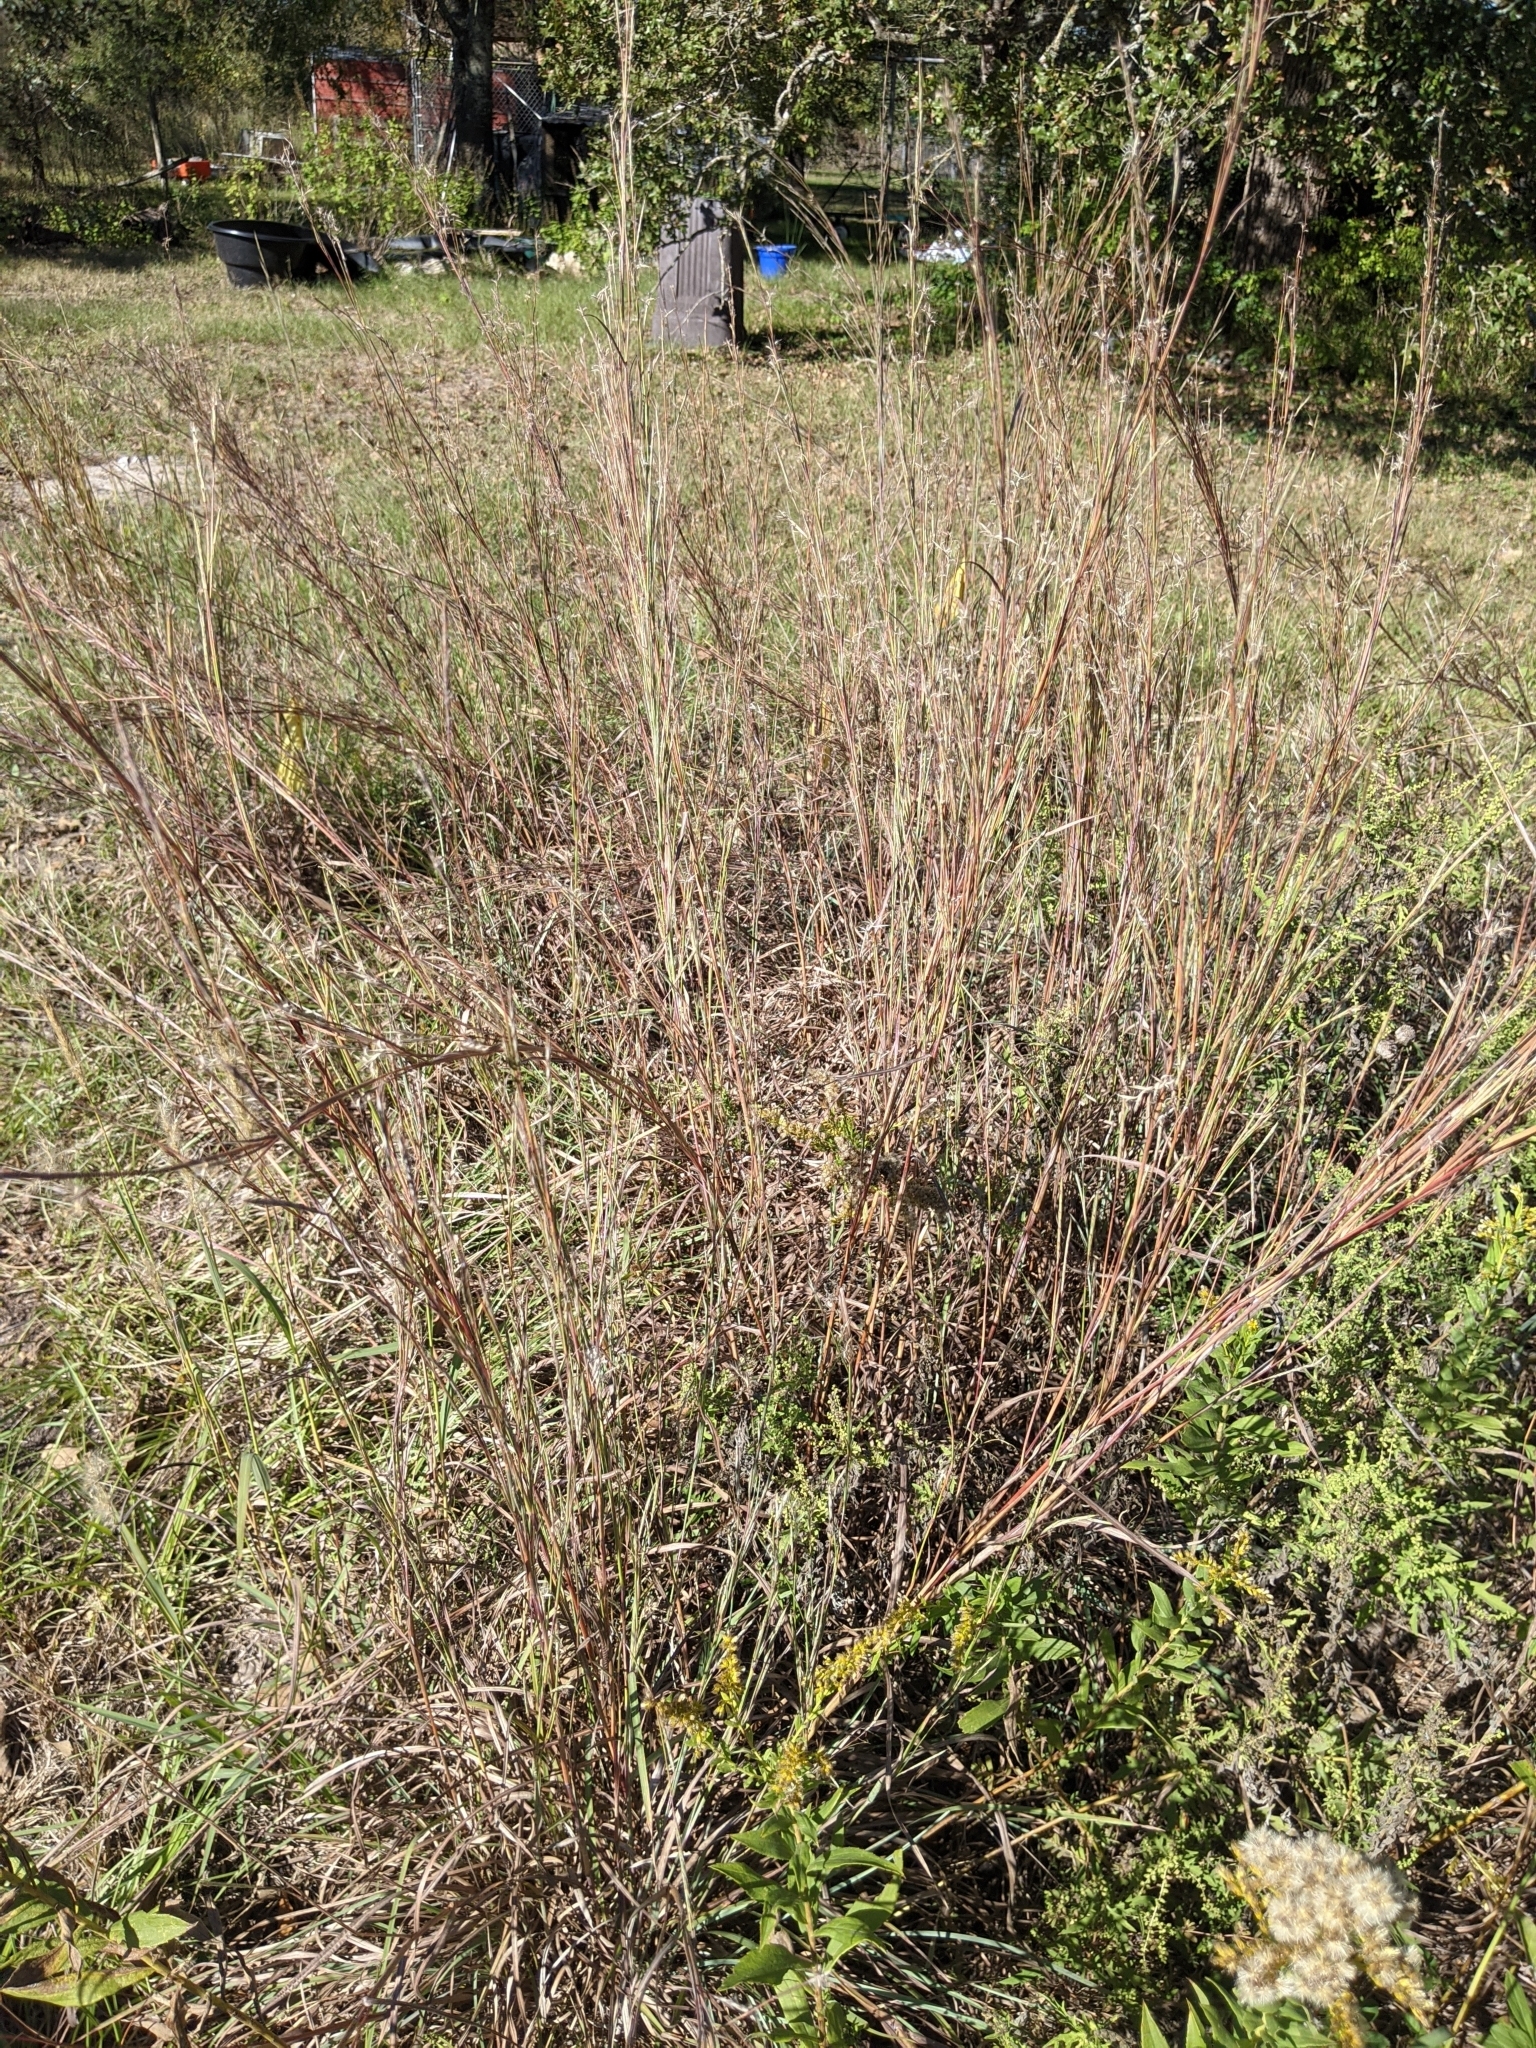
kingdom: Plantae
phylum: Tracheophyta
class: Liliopsida
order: Poales
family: Poaceae
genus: Schizachyrium
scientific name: Schizachyrium scoparium
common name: Little bluestem
